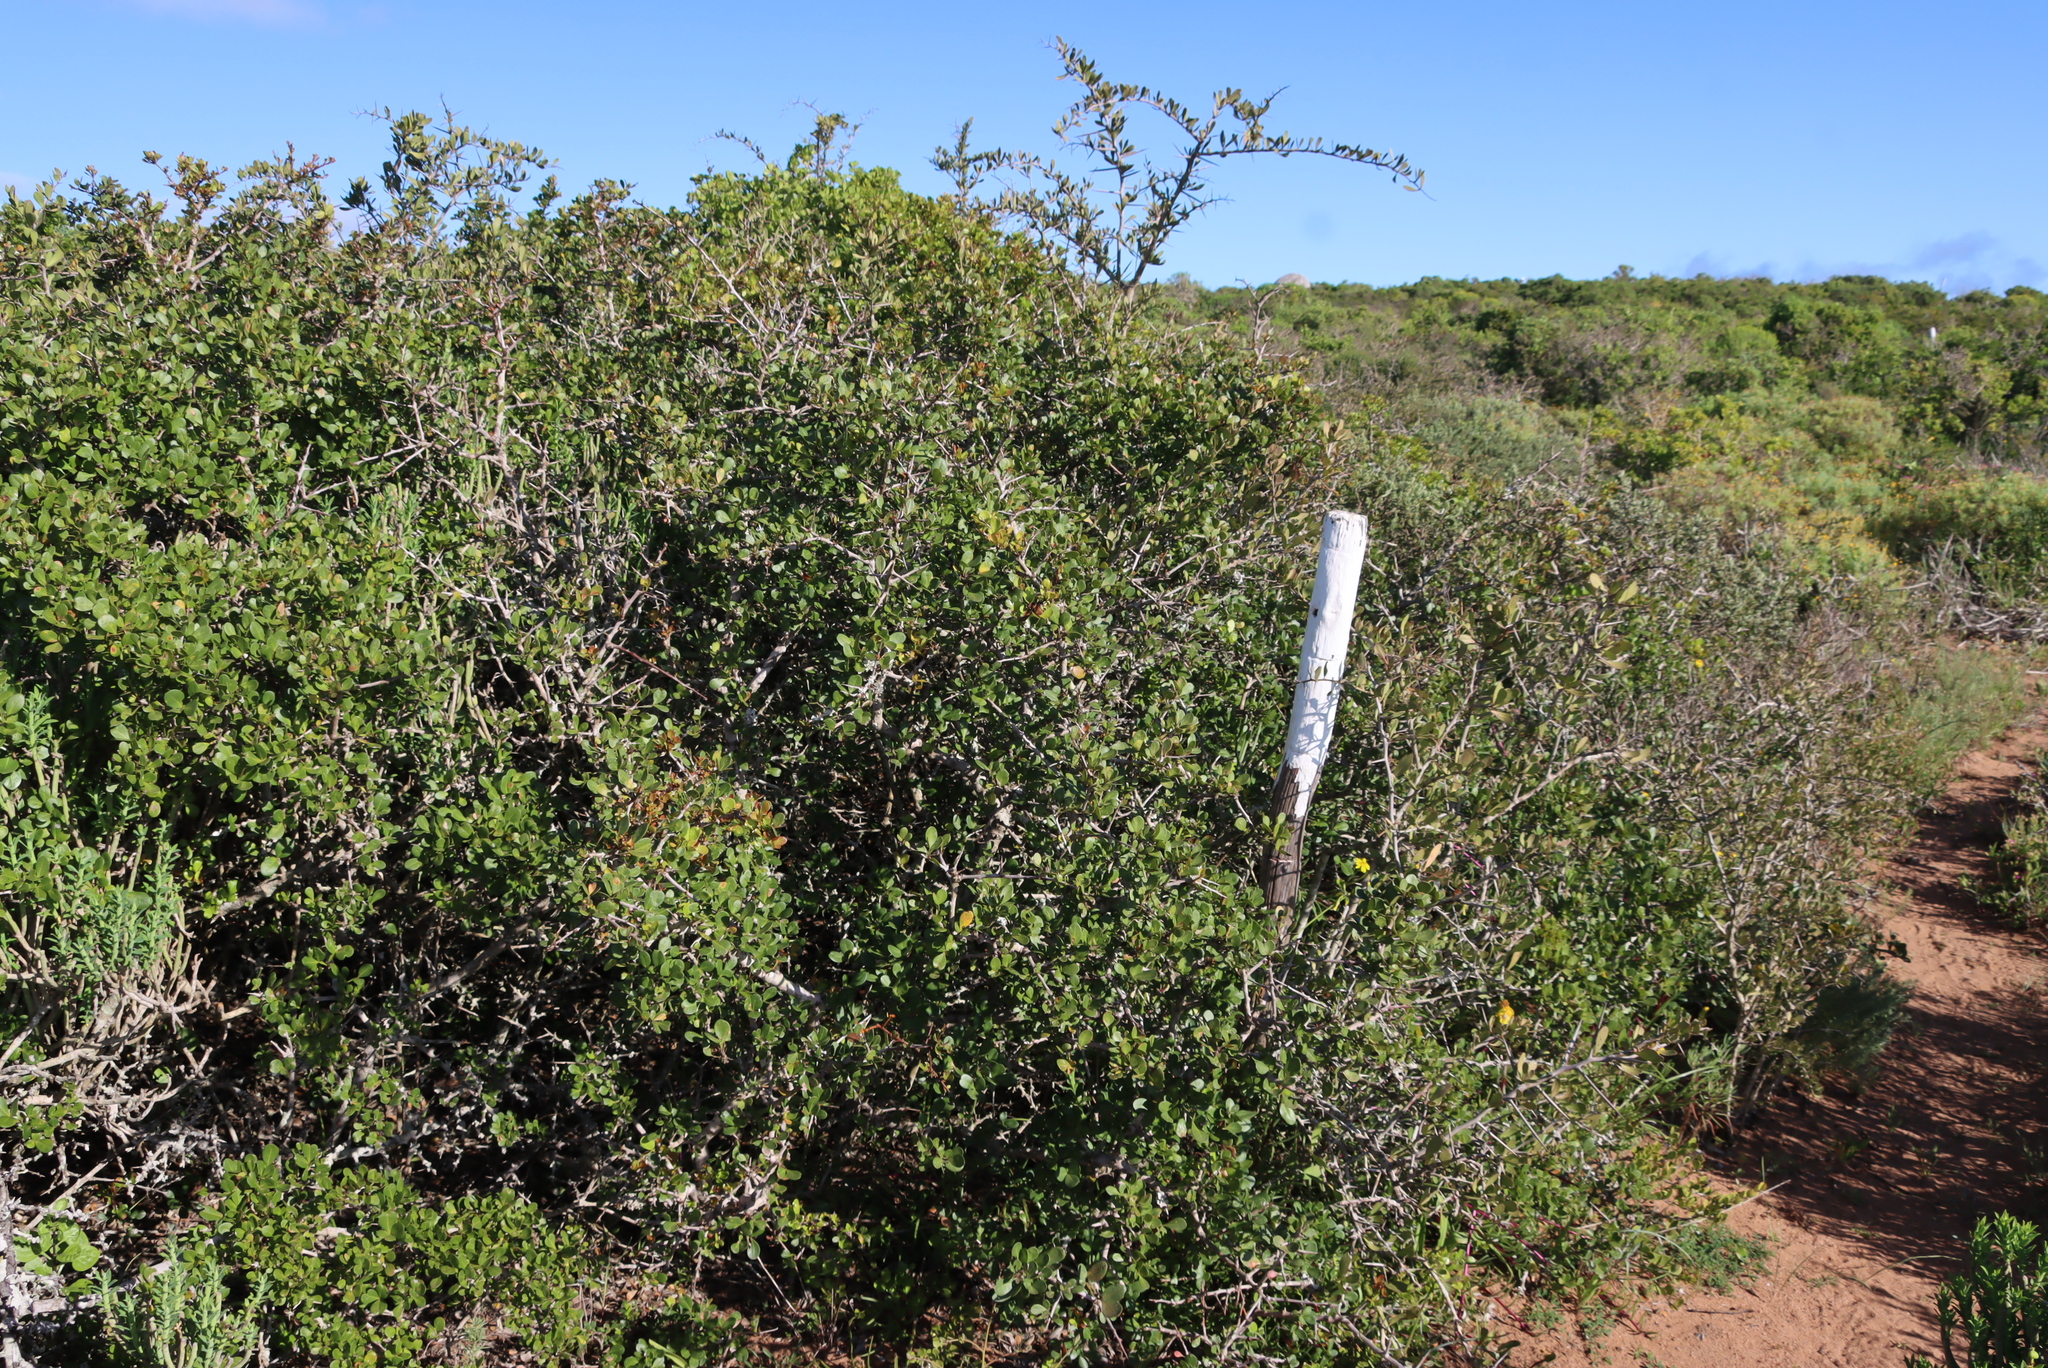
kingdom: Plantae
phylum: Tracheophyta
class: Magnoliopsida
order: Sapindales
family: Anacardiaceae
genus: Searsia
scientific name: Searsia pterota
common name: Winged currant
